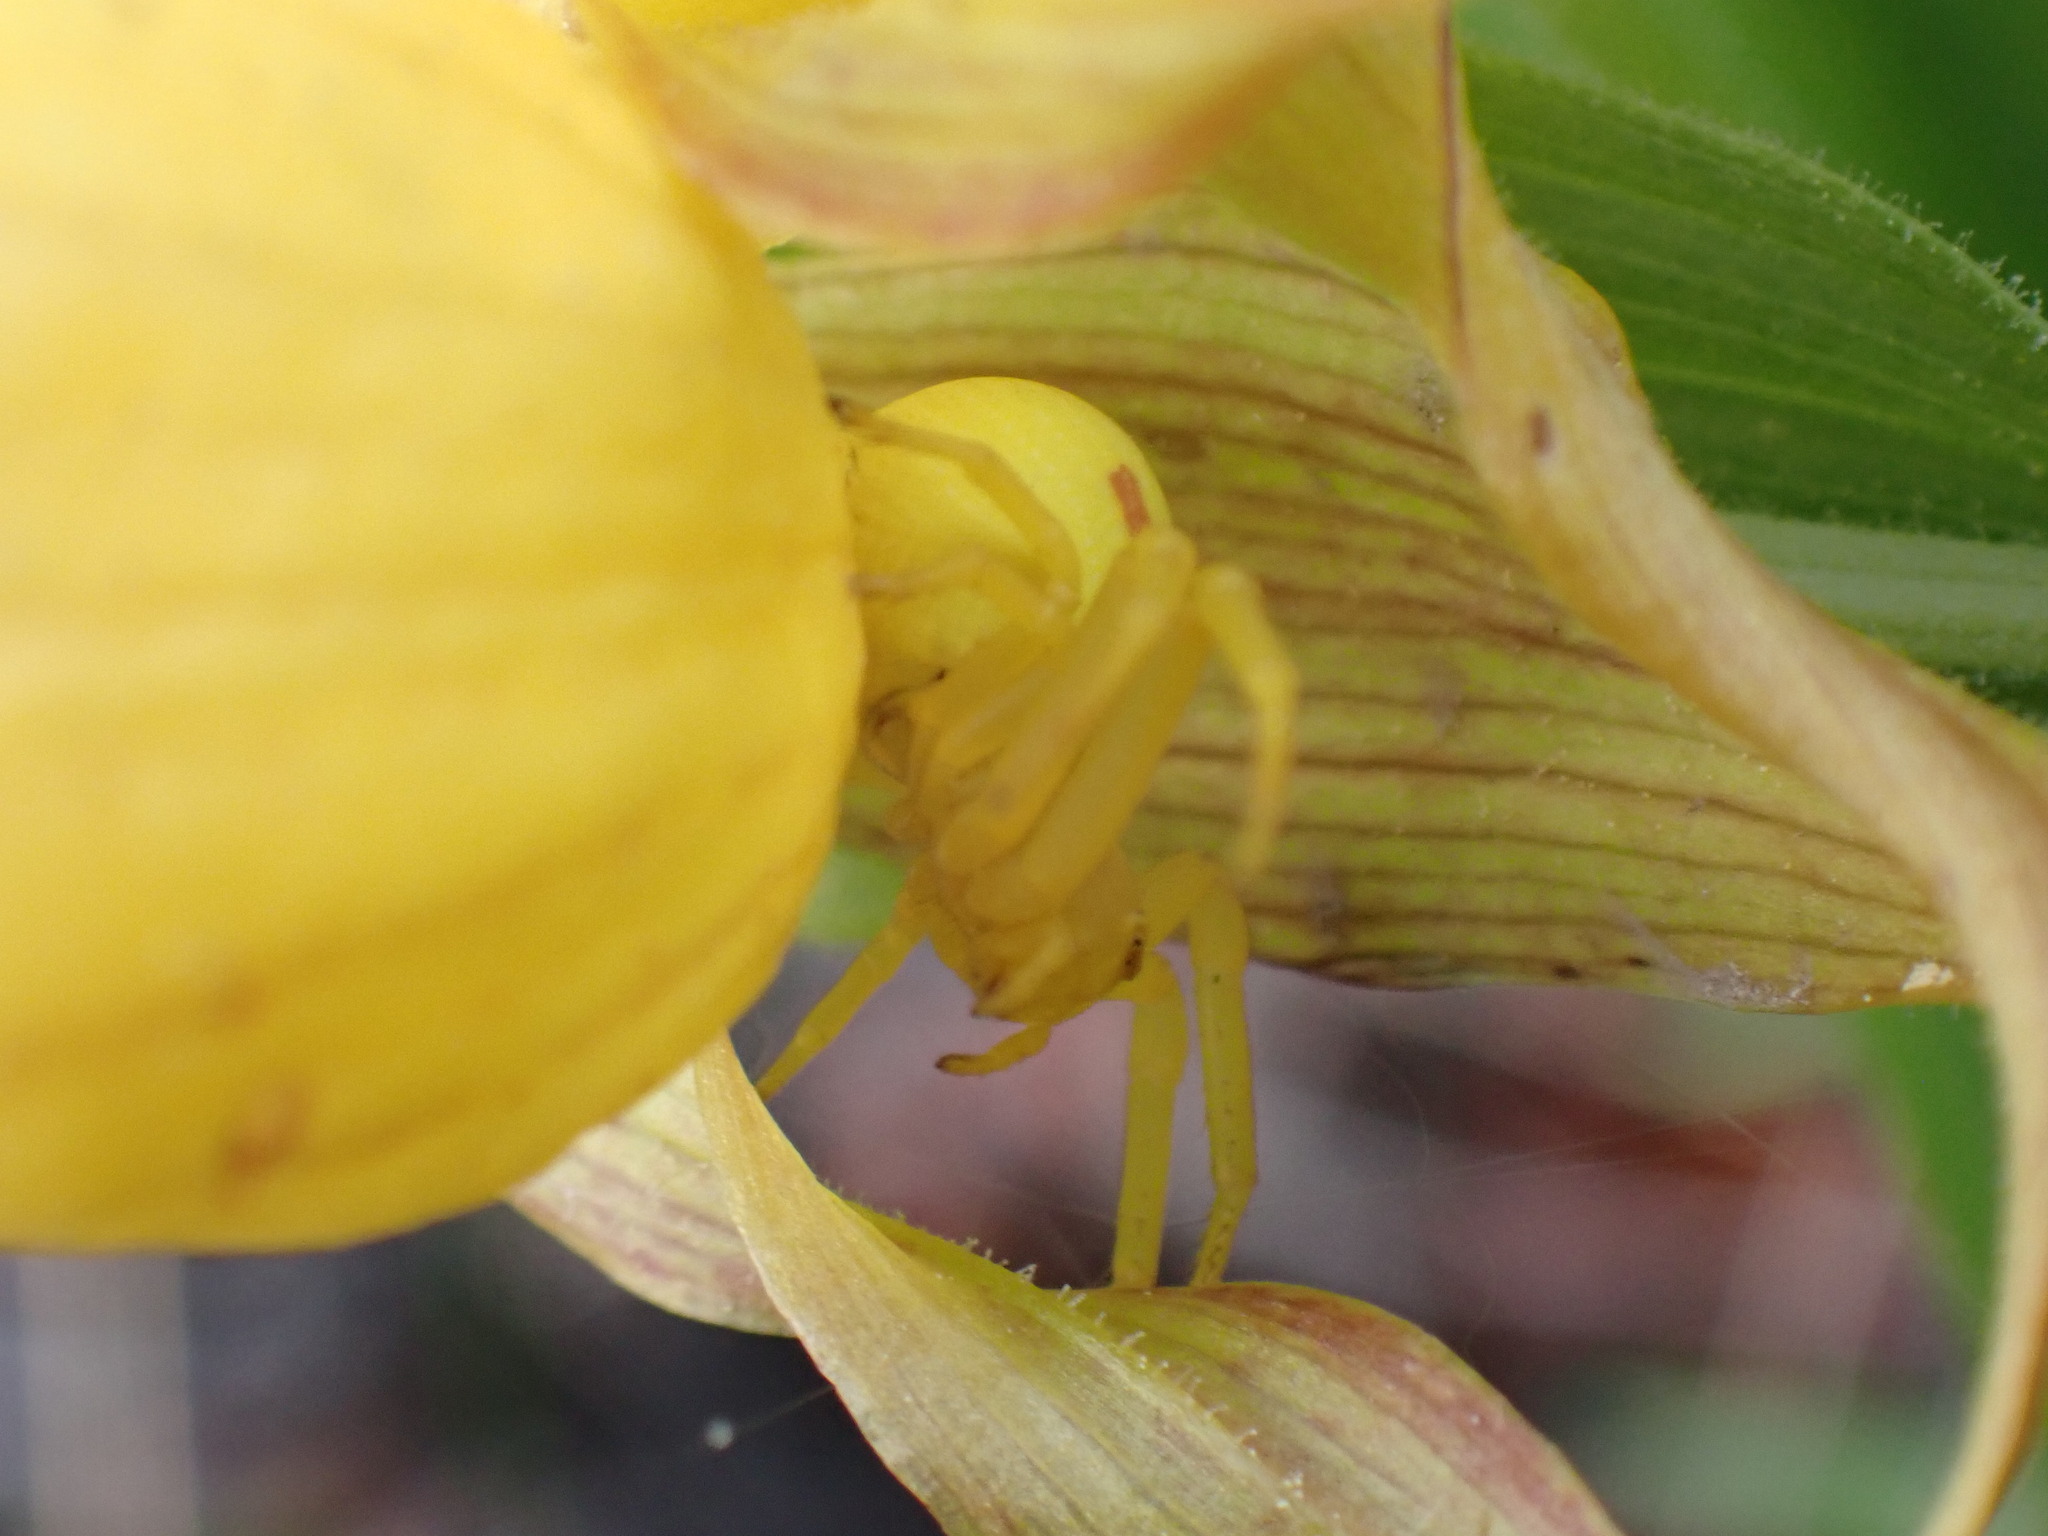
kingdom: Animalia
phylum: Arthropoda
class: Arachnida
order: Araneae
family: Thomisidae
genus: Misumena
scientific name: Misumena vatia
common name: Goldenrod crab spider
